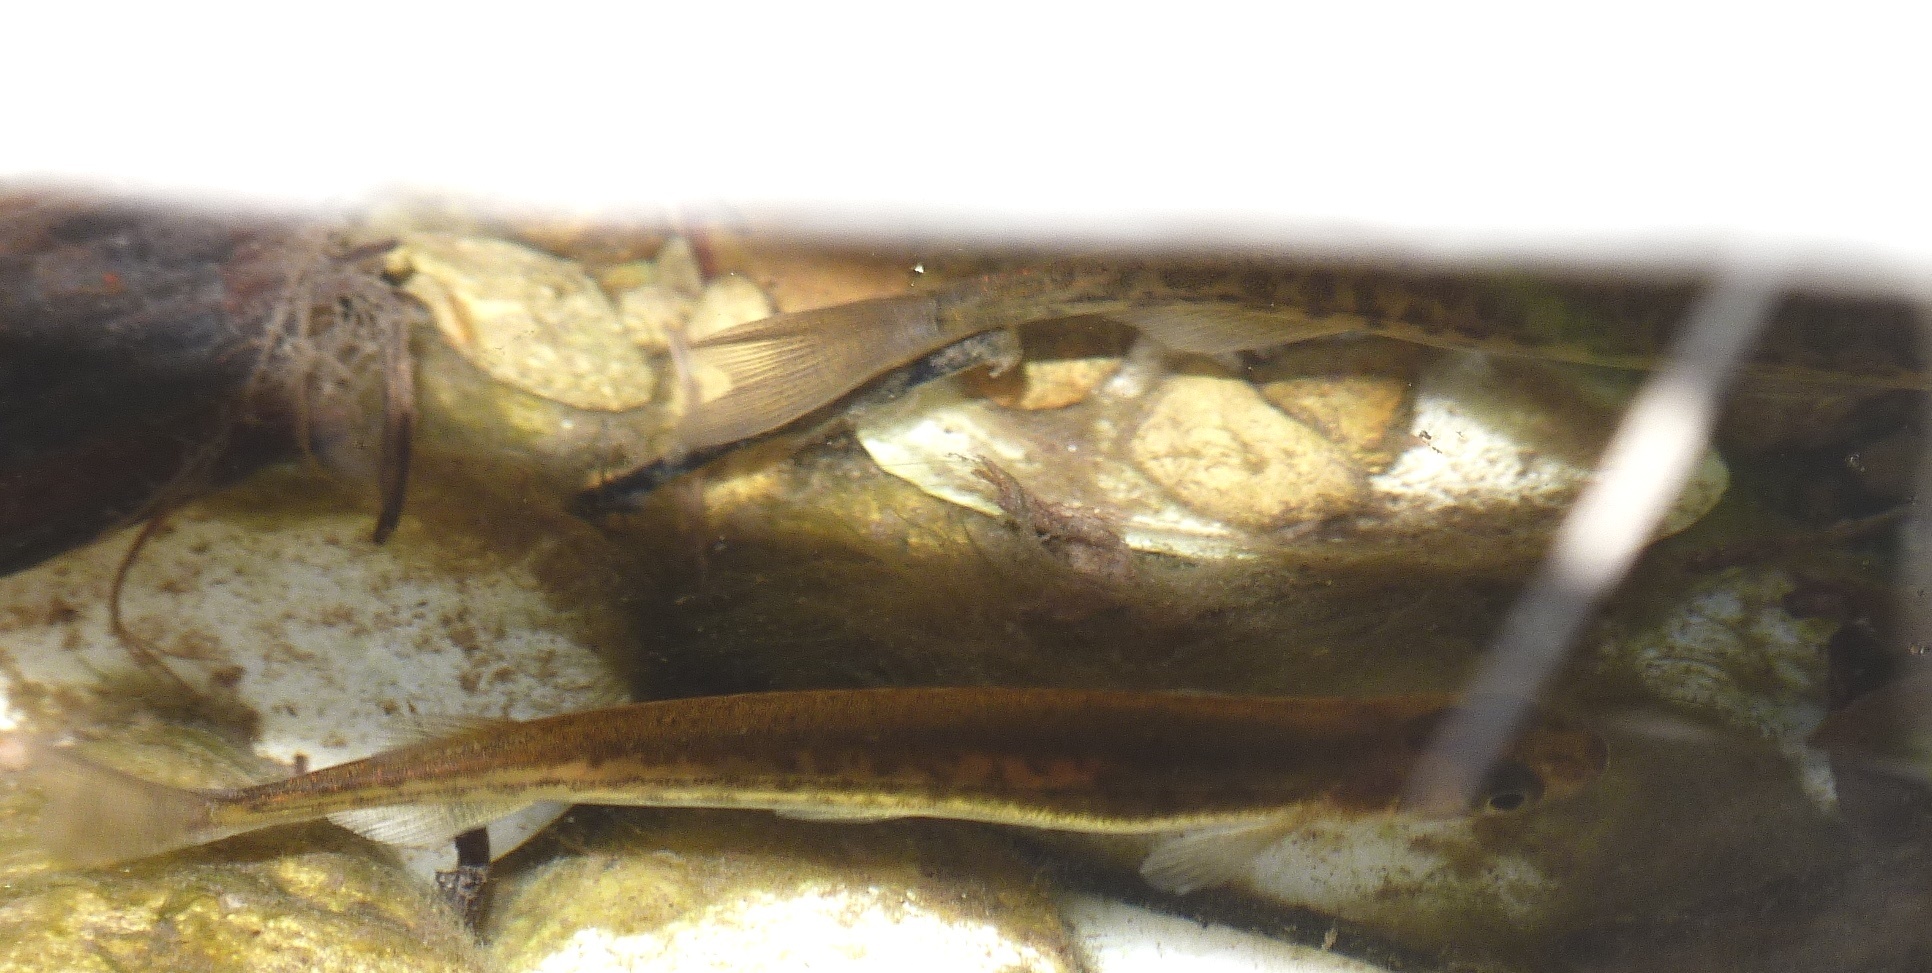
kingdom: Animalia
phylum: Chordata
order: Osmeriformes
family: Galaxiidae
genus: Galaxias
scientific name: Galaxias maculatus
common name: Common galaxias
